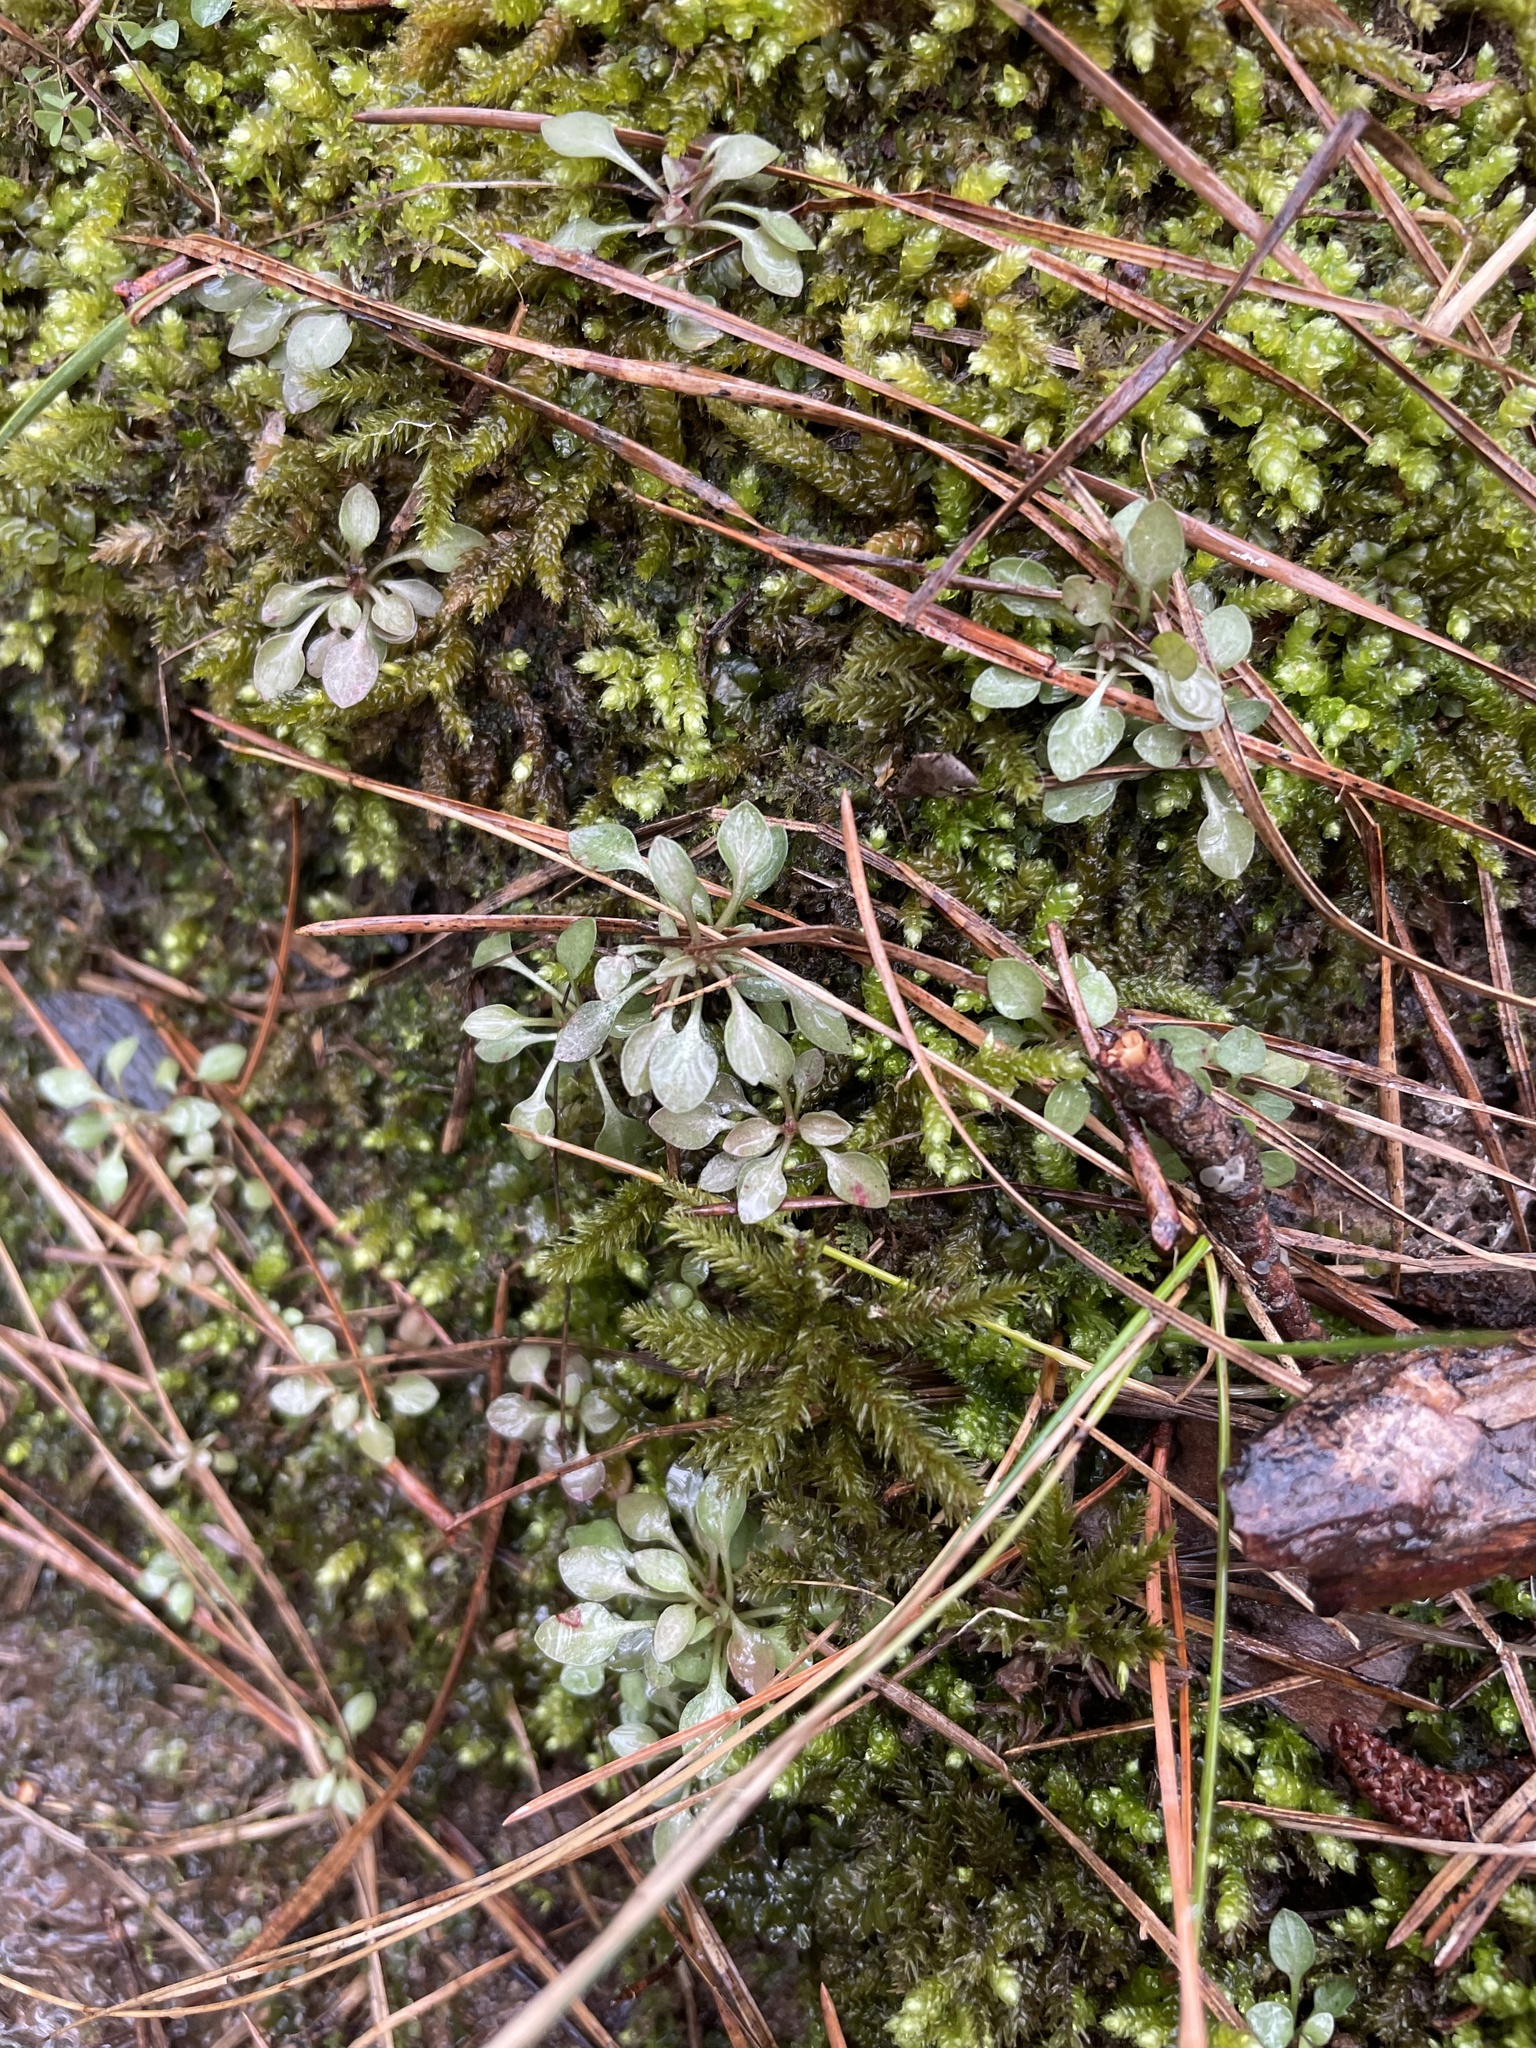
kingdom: Plantae
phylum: Tracheophyta
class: Magnoliopsida
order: Gentianales
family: Rubiaceae
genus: Houstonia
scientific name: Houstonia caerulea
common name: Bluets
